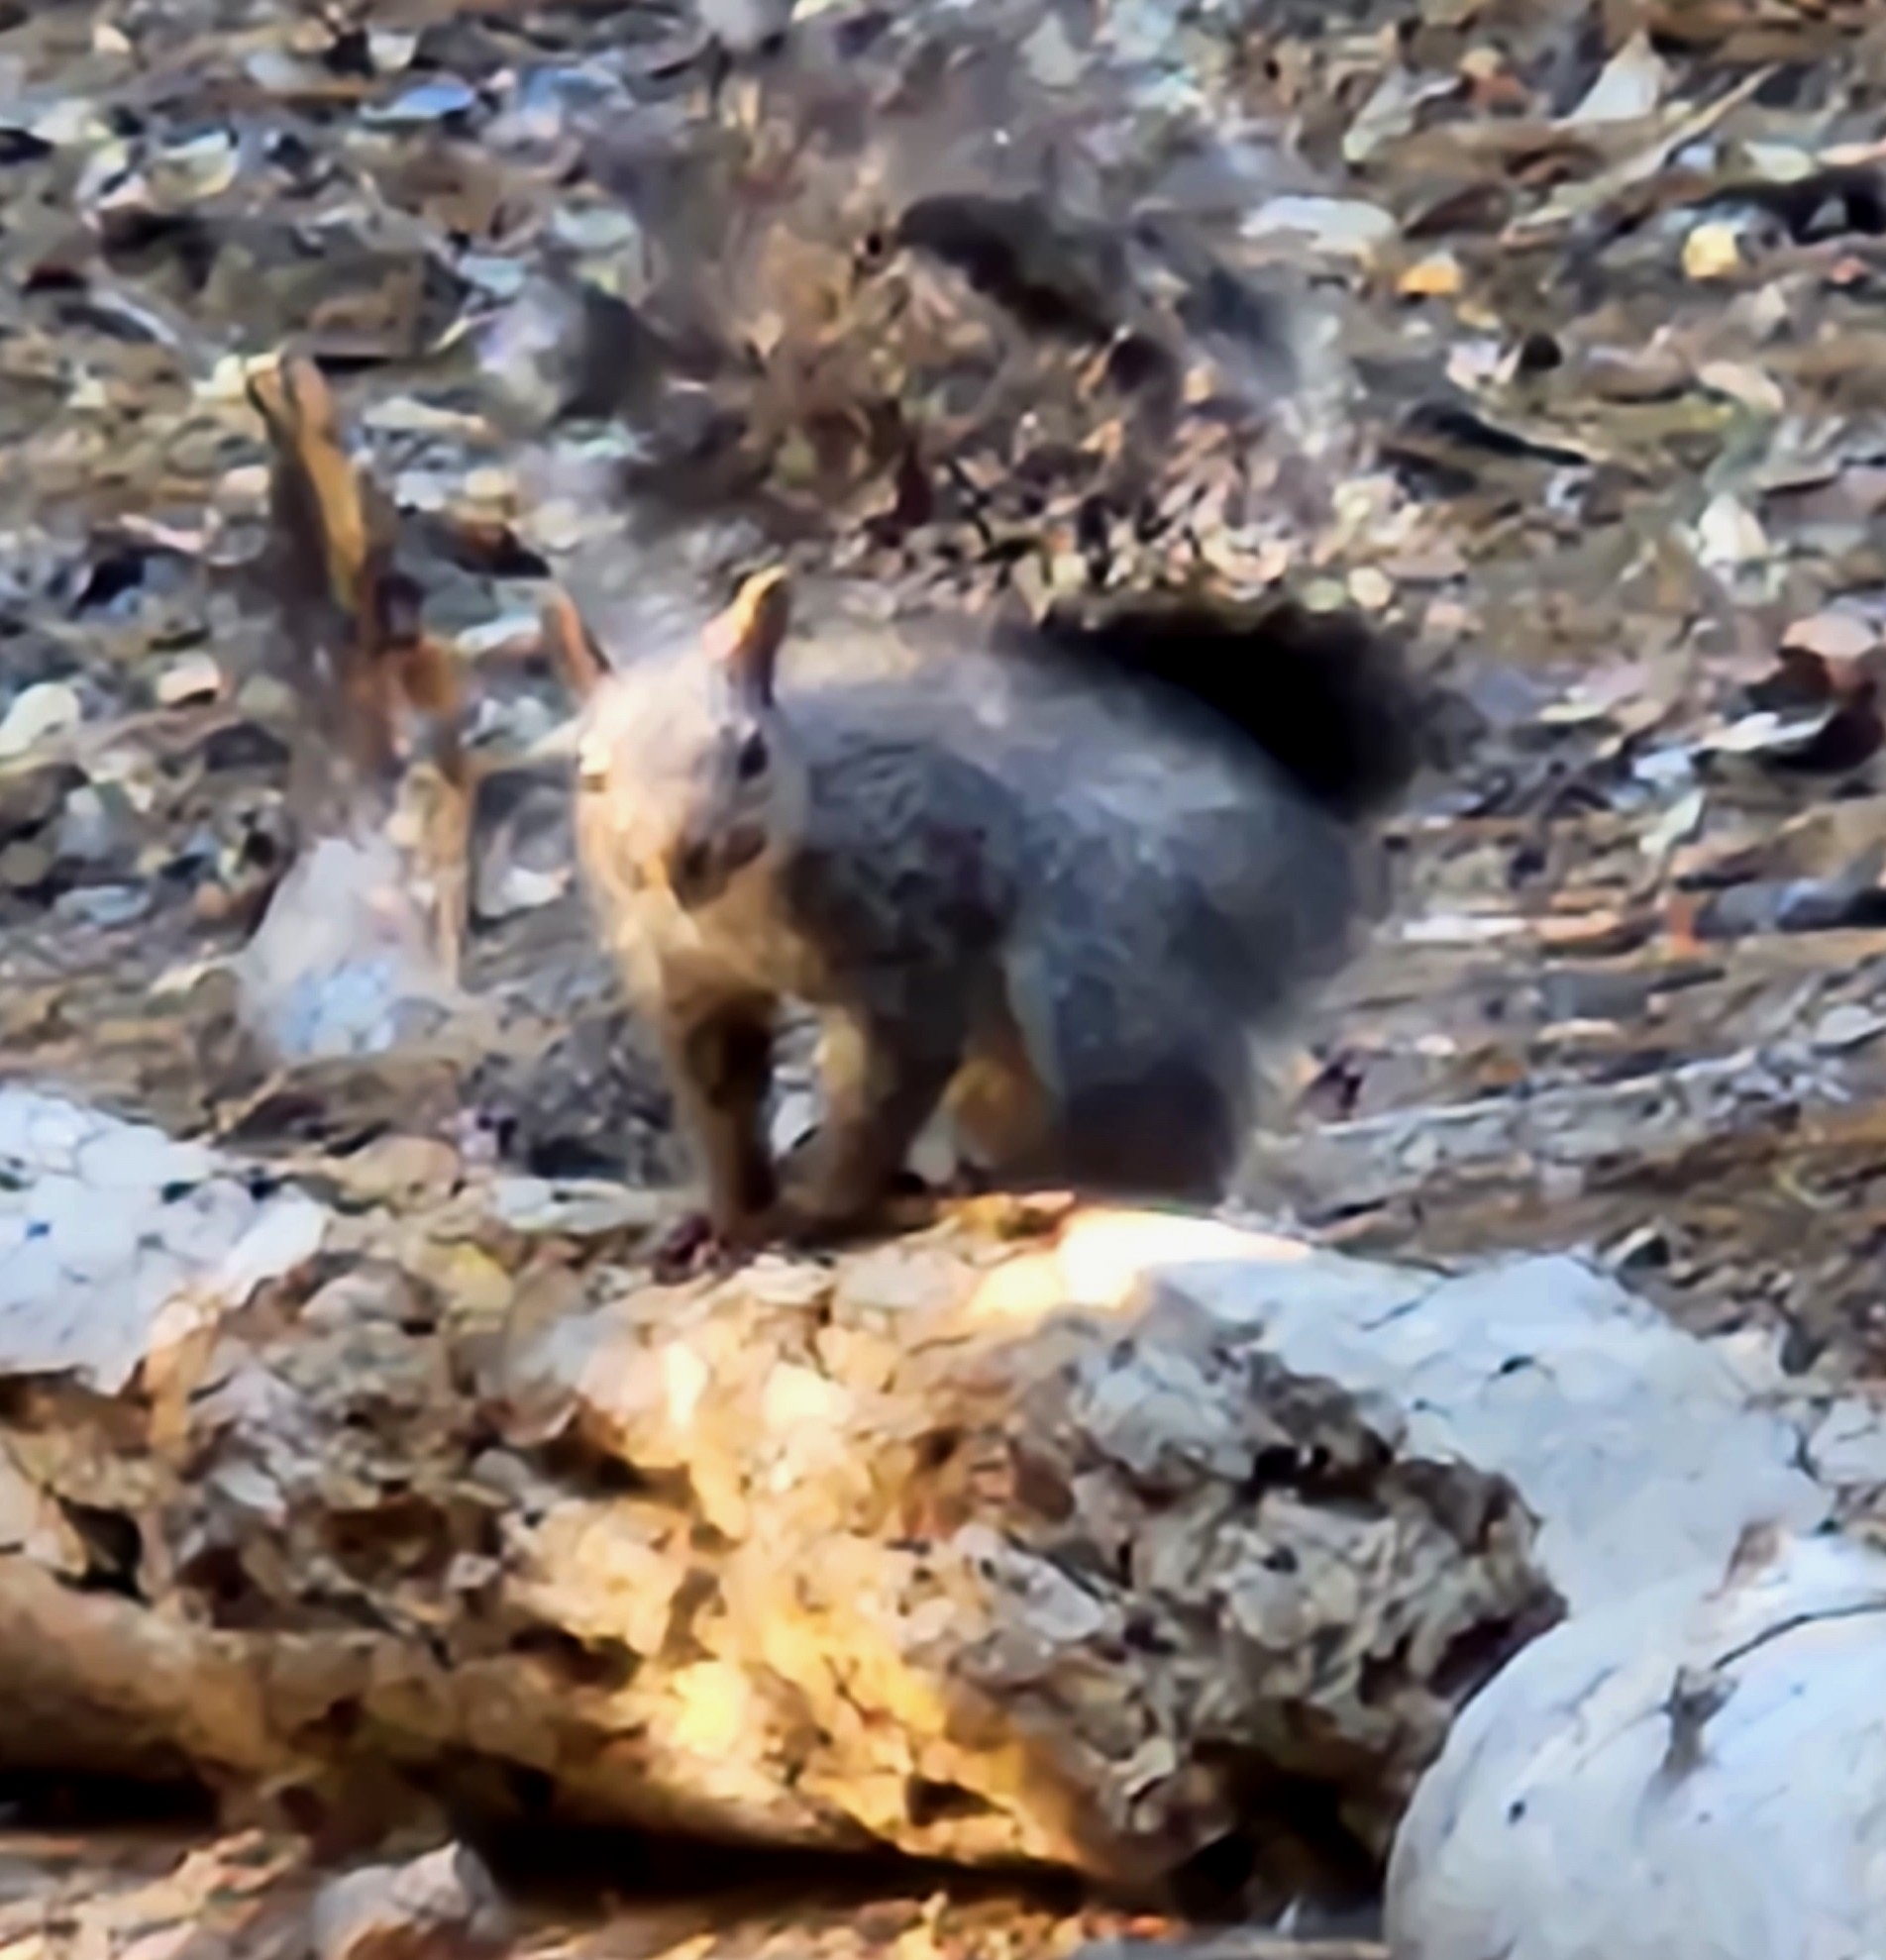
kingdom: Animalia
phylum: Chordata
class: Mammalia
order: Rodentia
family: Sciuridae
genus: Sciurus
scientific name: Sciurus griseus
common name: Western gray squirrel
